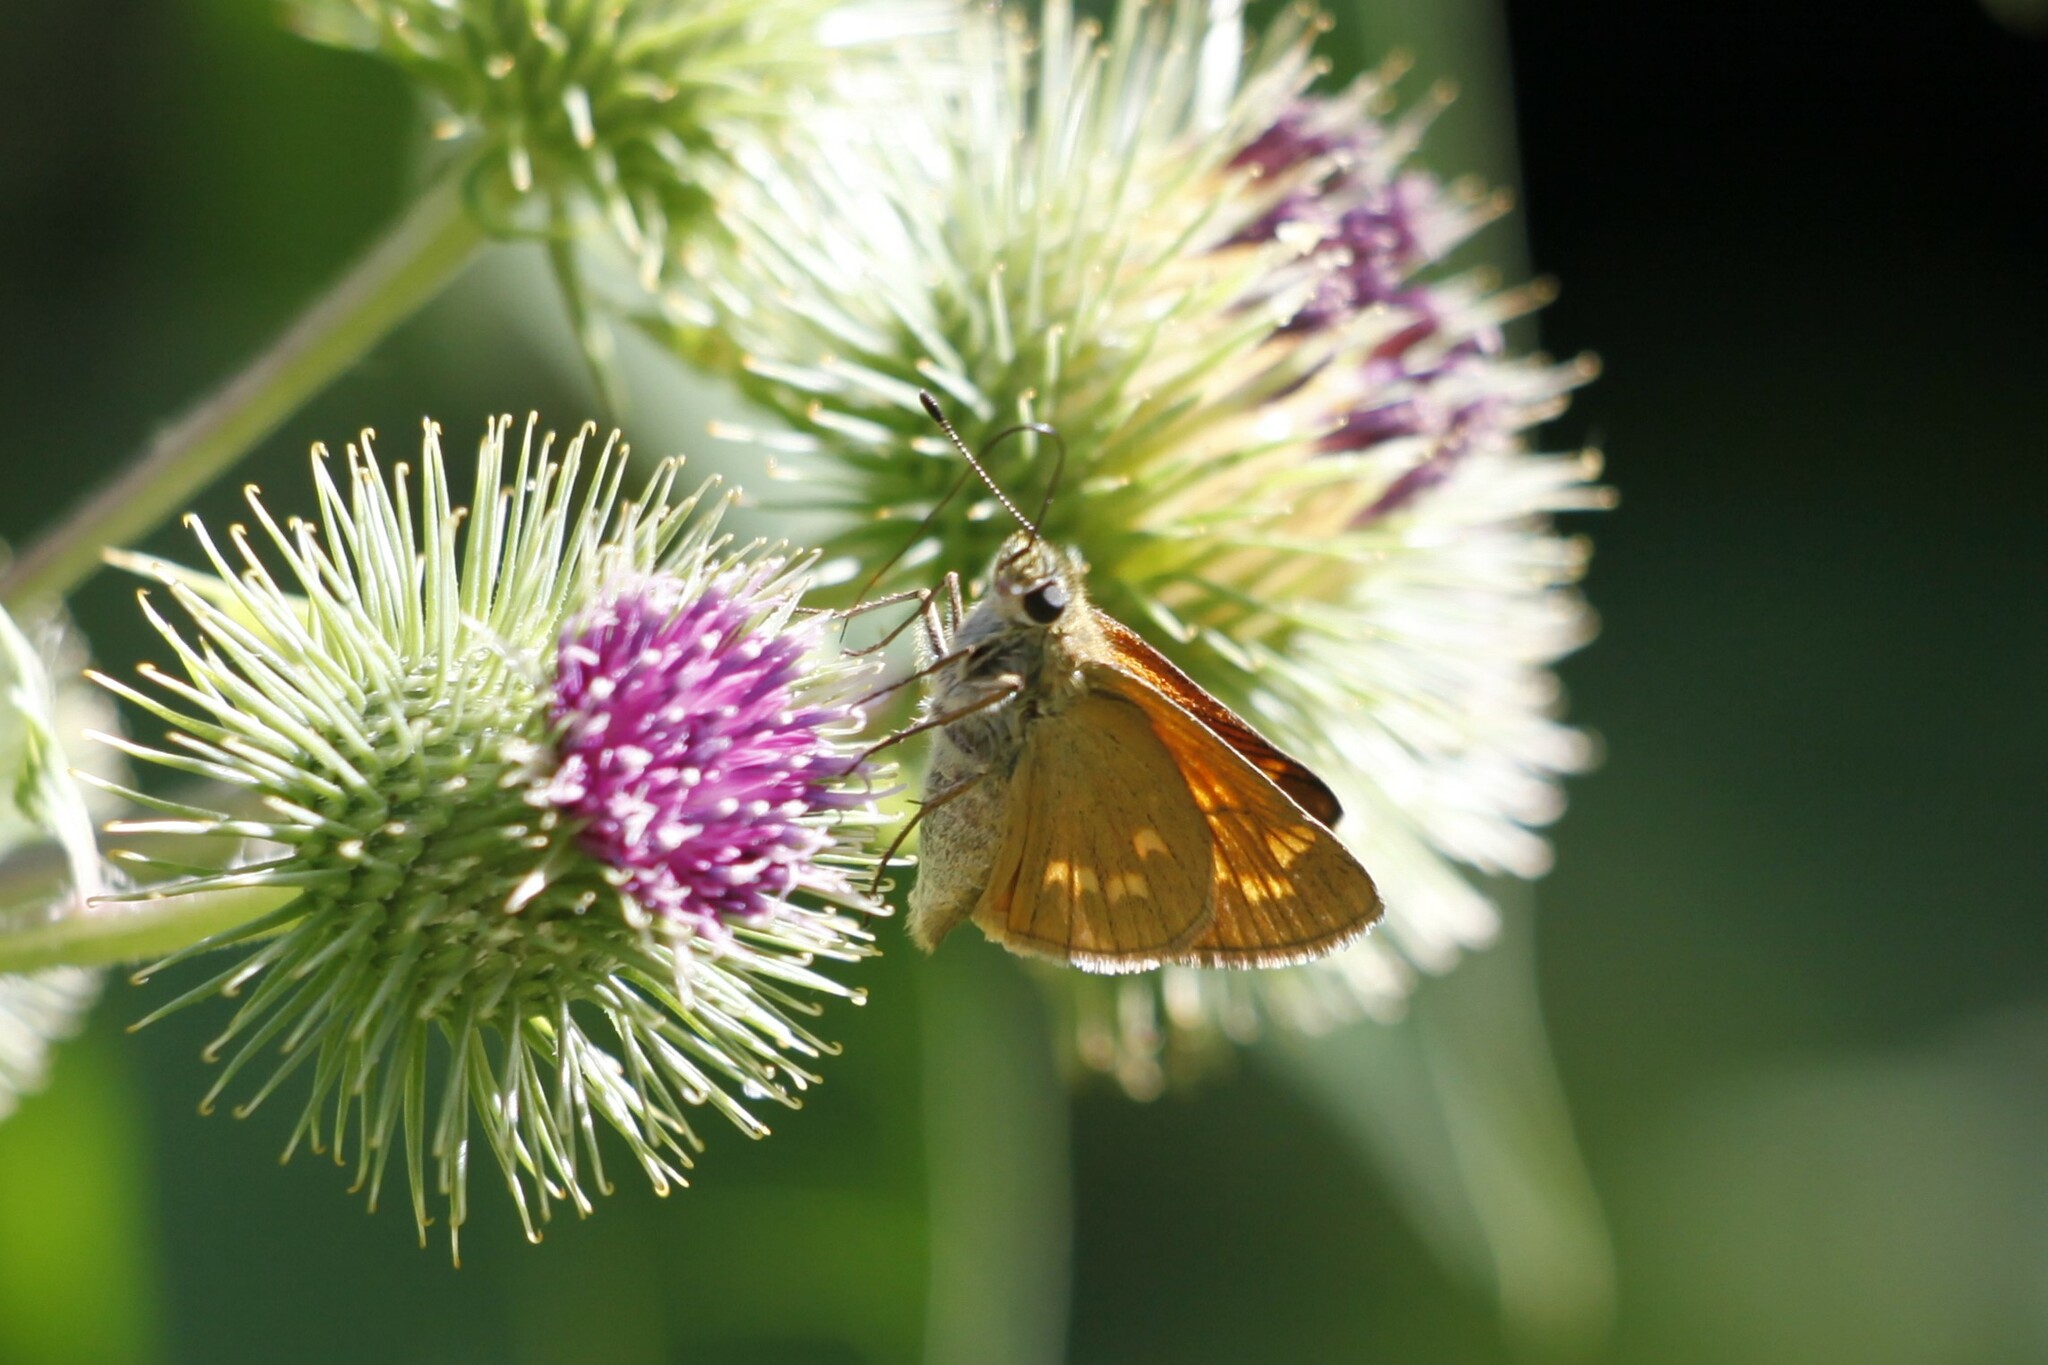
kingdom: Animalia
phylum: Arthropoda
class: Insecta
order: Lepidoptera
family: Hesperiidae
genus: Ochlodes
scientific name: Ochlodes venata
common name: Large skipper
